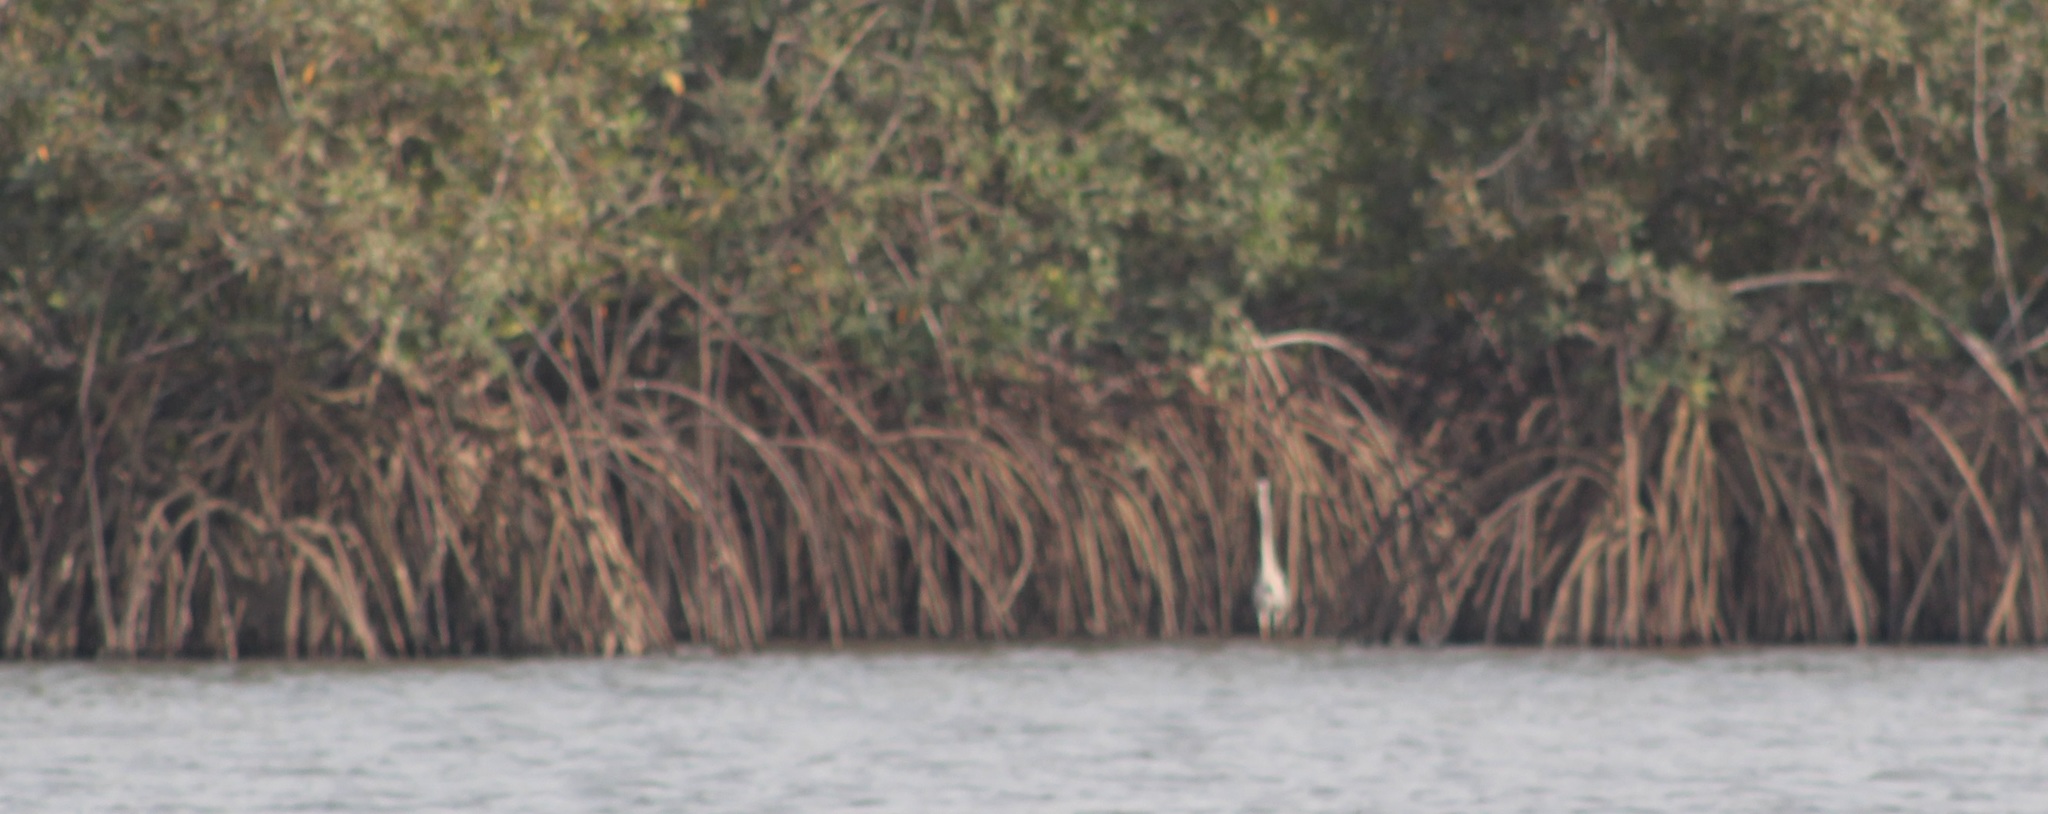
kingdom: Animalia
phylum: Chordata
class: Aves
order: Pelecaniformes
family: Ardeidae
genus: Ardea
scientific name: Ardea cinerea
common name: Grey heron
